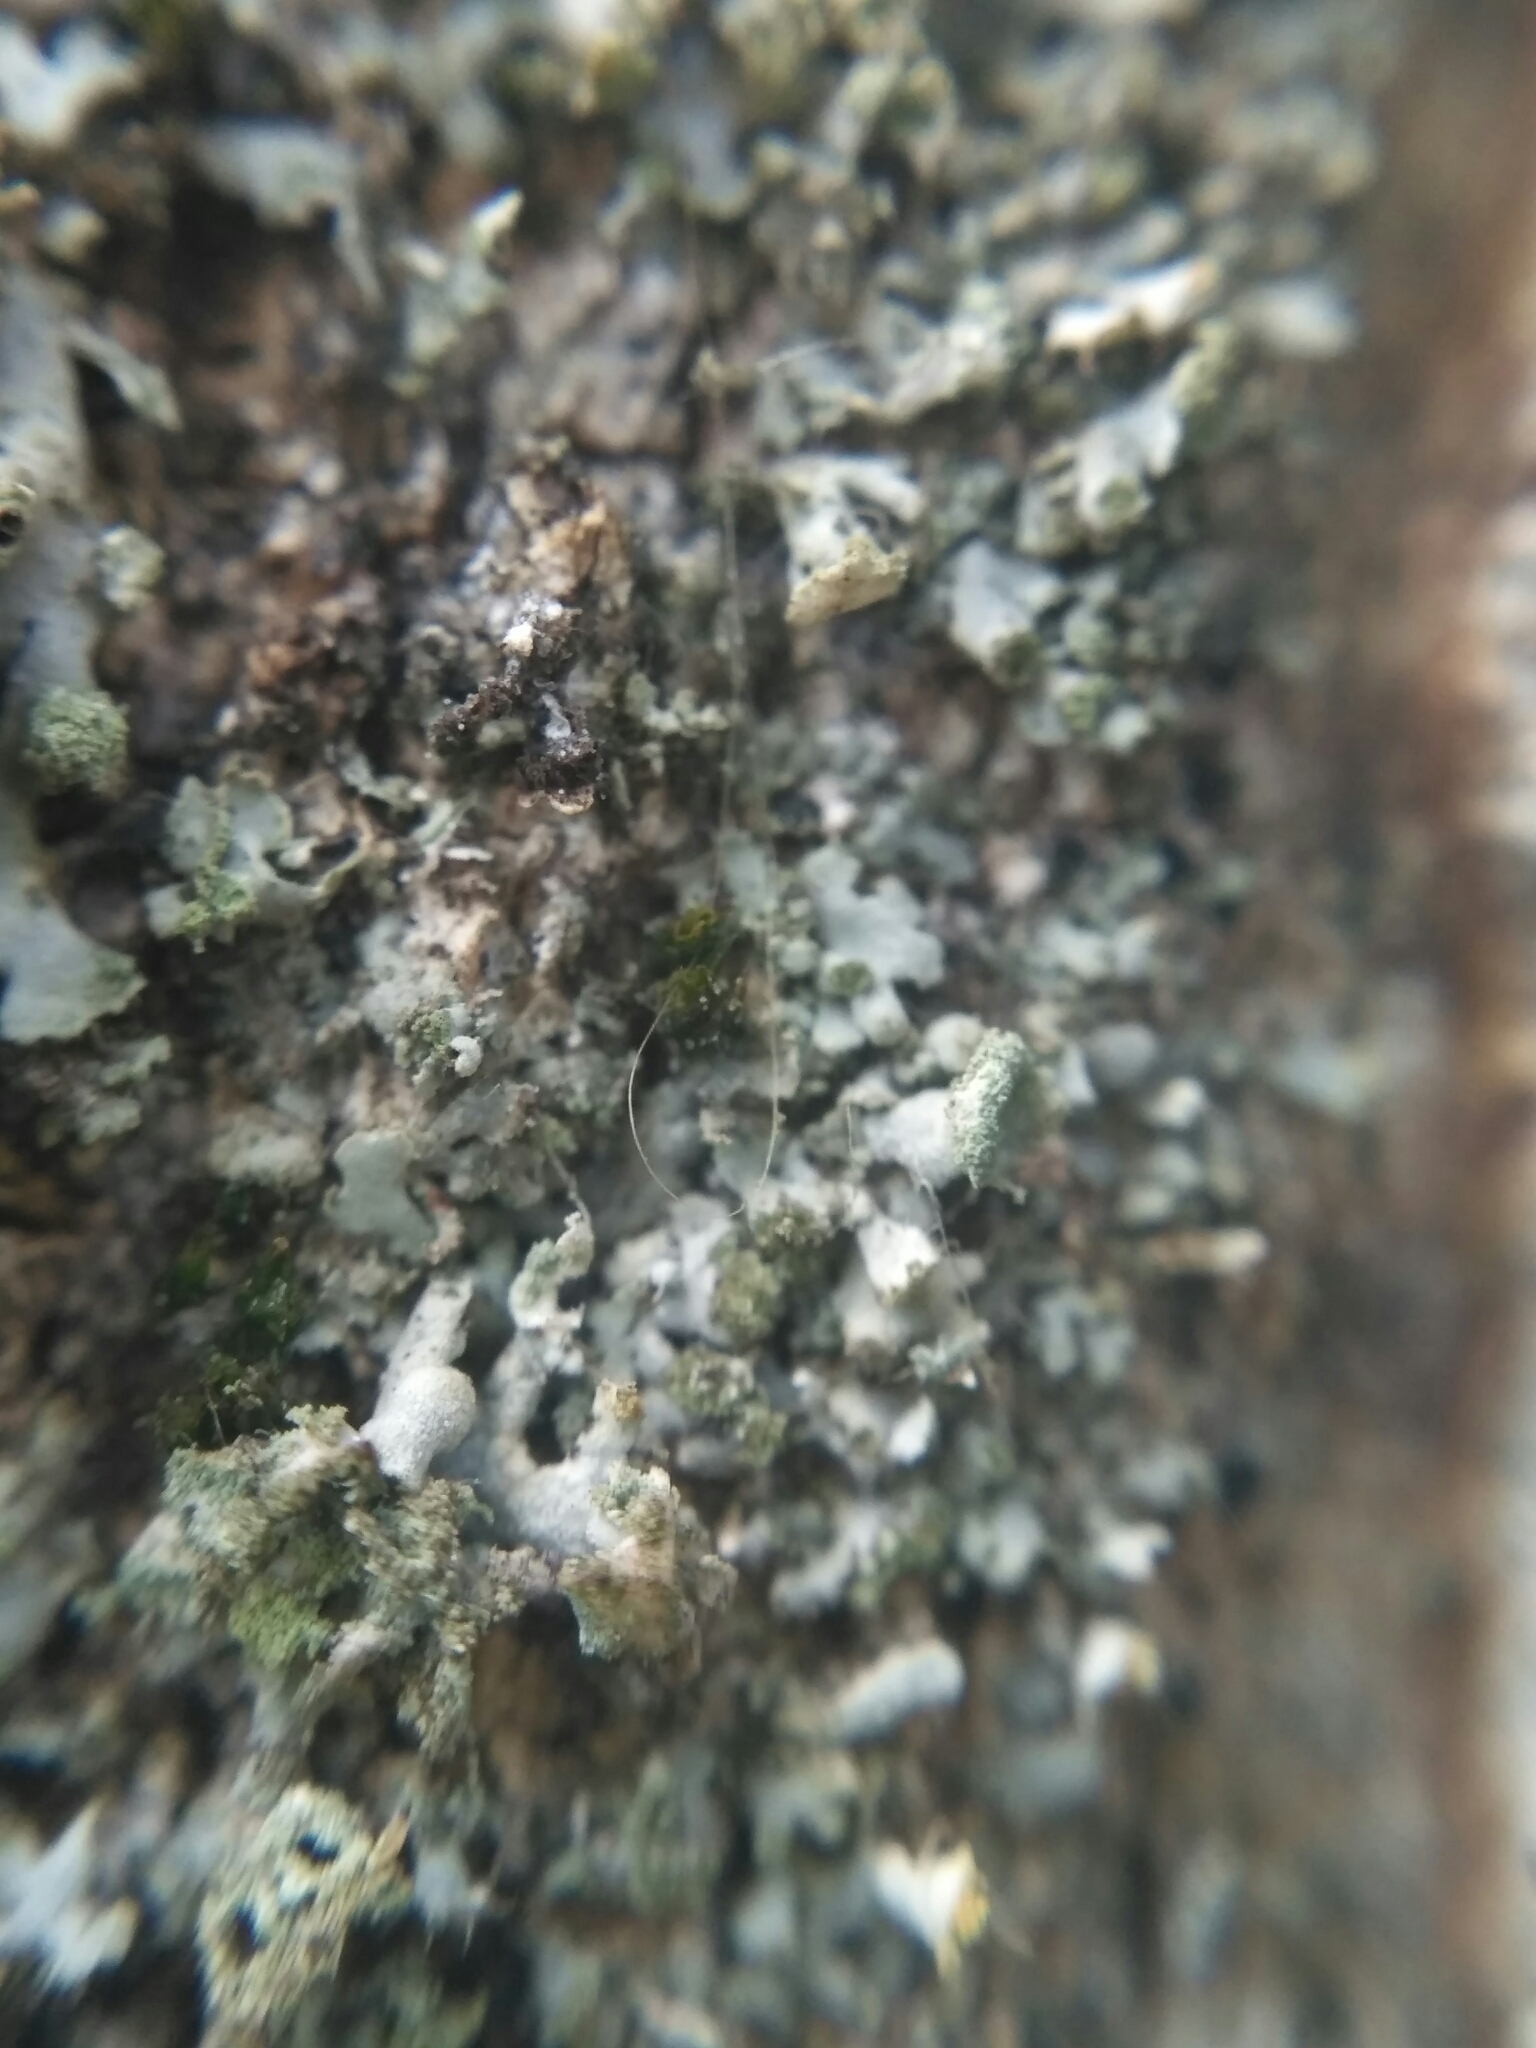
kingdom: Fungi
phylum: Ascomycota
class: Lecanoromycetes
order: Caliciales
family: Physciaceae
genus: Physcia
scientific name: Physcia tenella
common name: Fringed rosette lichen
